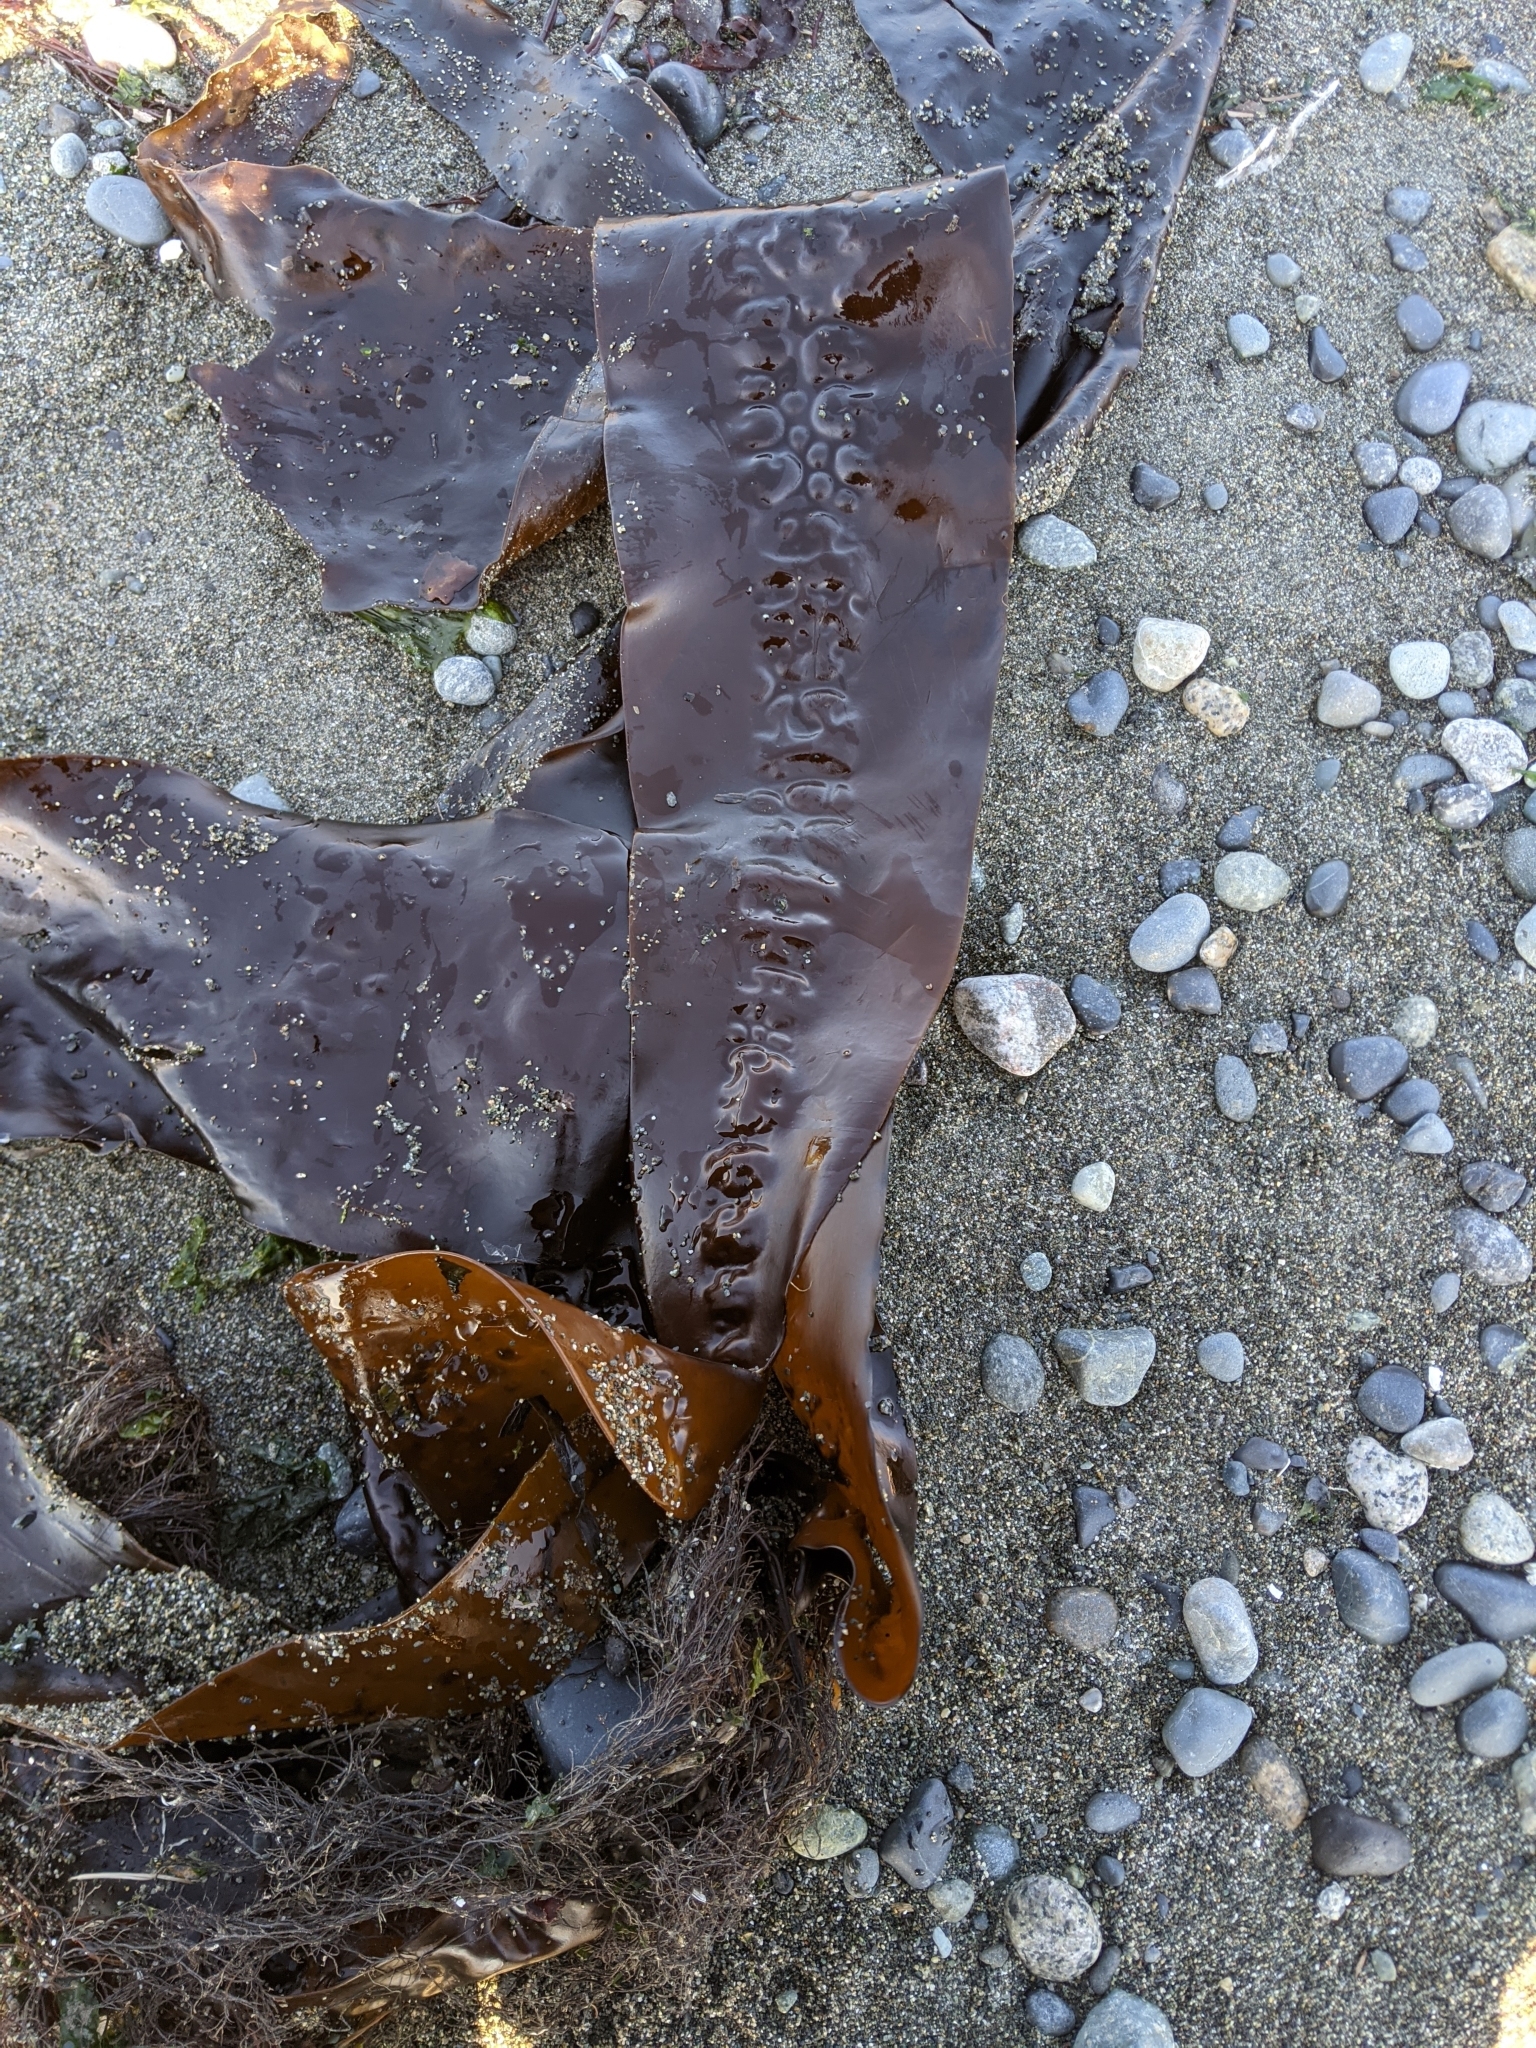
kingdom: Chromista
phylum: Ochrophyta
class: Phaeophyceae
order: Laminariales
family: Laminariaceae
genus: Saccharina
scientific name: Saccharina latissima
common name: Poor man's weather glass
